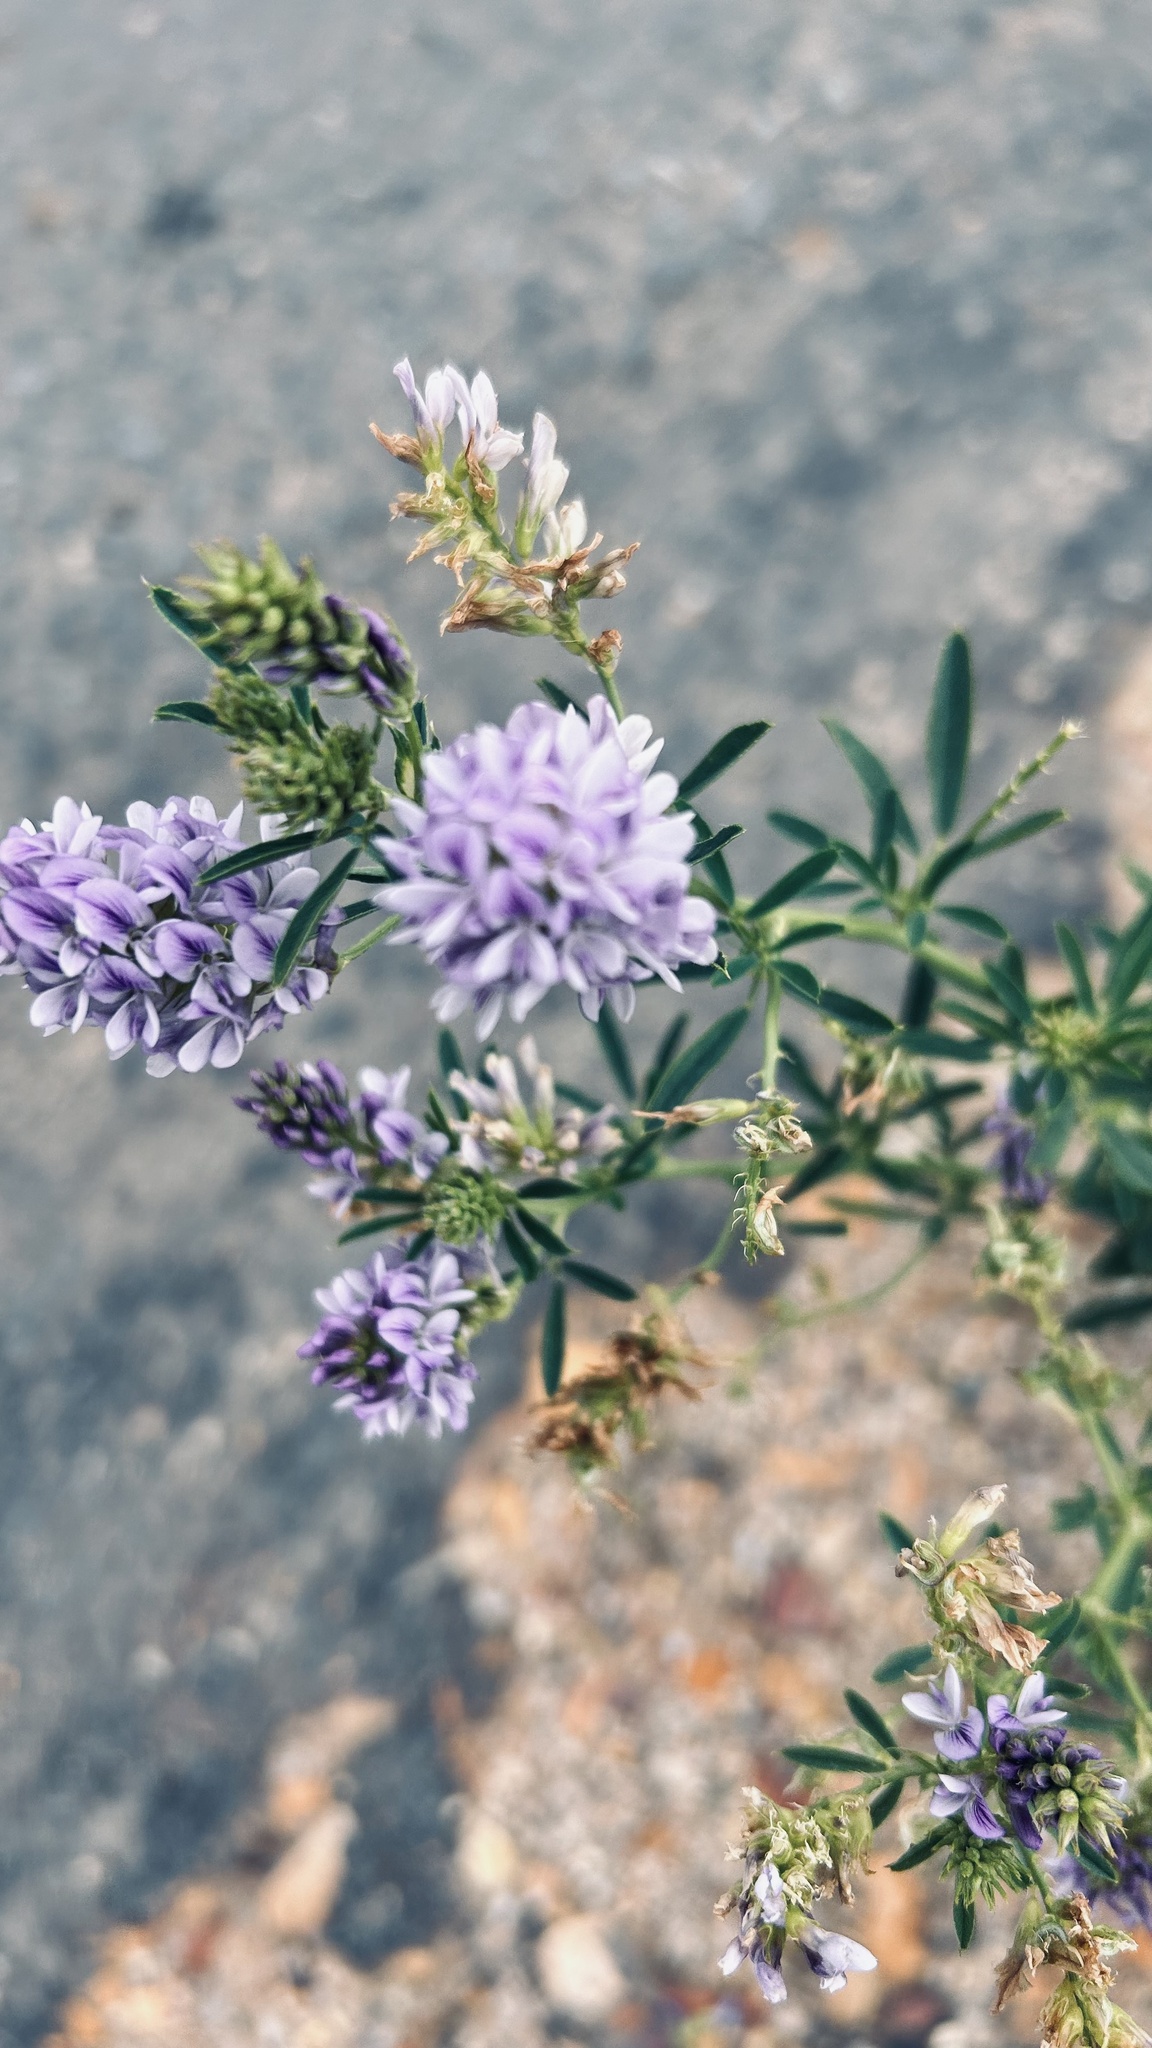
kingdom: Plantae
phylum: Tracheophyta
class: Magnoliopsida
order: Fabales
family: Fabaceae
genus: Medicago
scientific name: Medicago sativa
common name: Alfalfa
